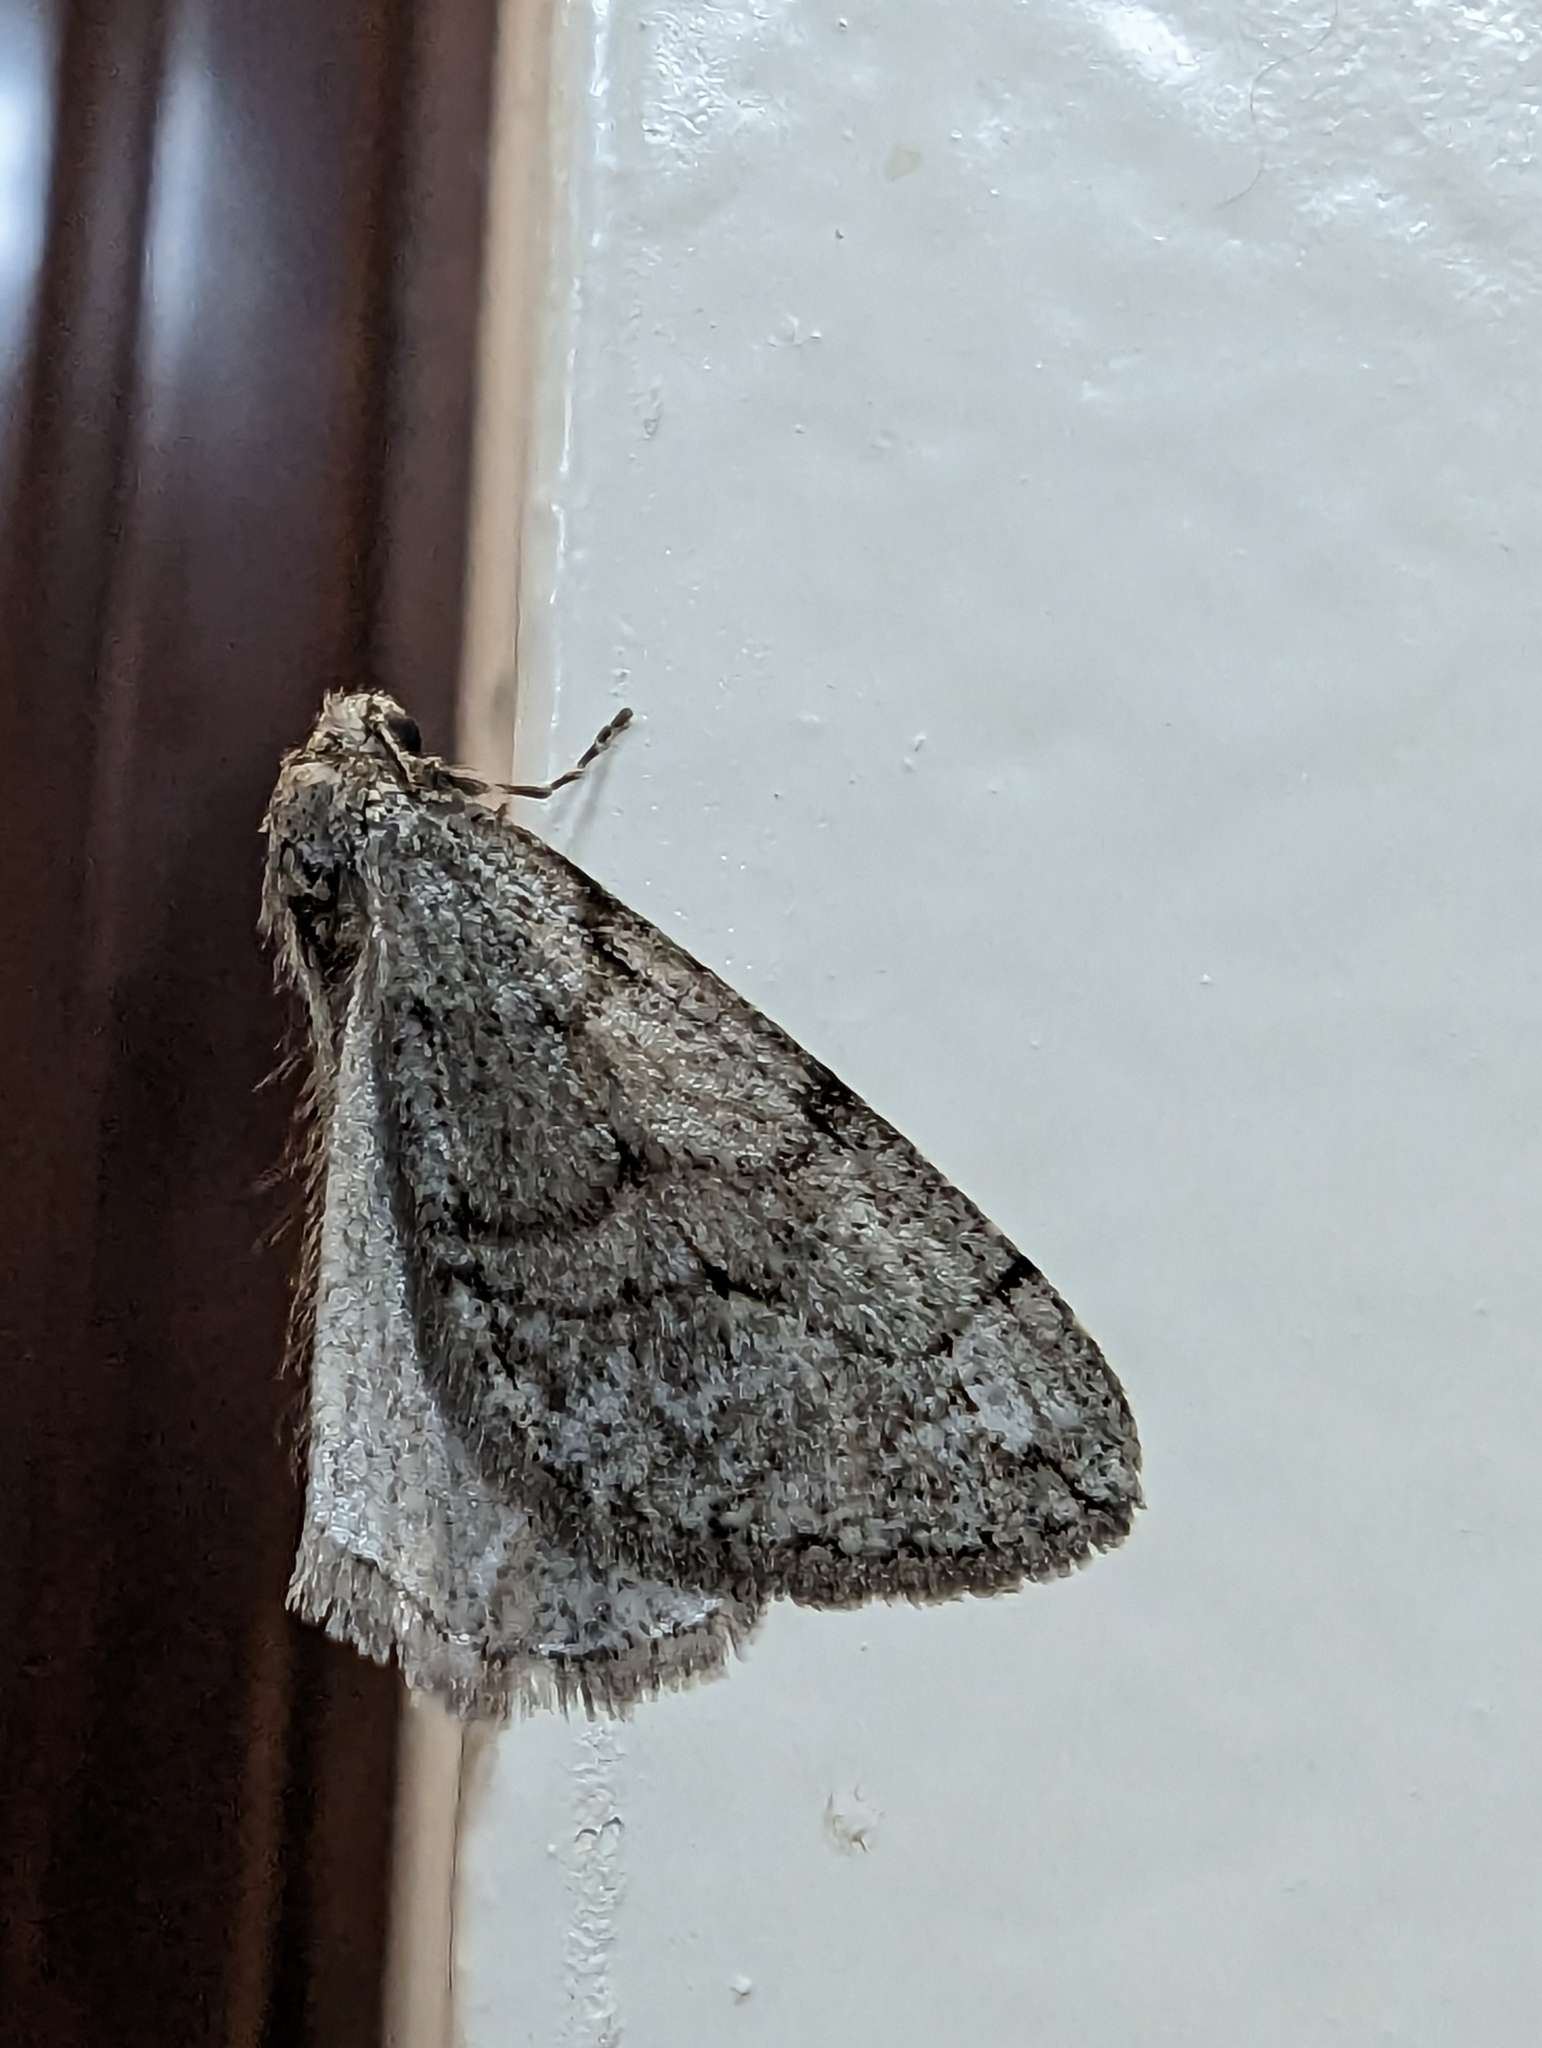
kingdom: Animalia
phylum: Arthropoda
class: Insecta
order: Lepidoptera
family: Geometridae
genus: Paleacrita
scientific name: Paleacrita vernata
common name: Spring cankerworm
